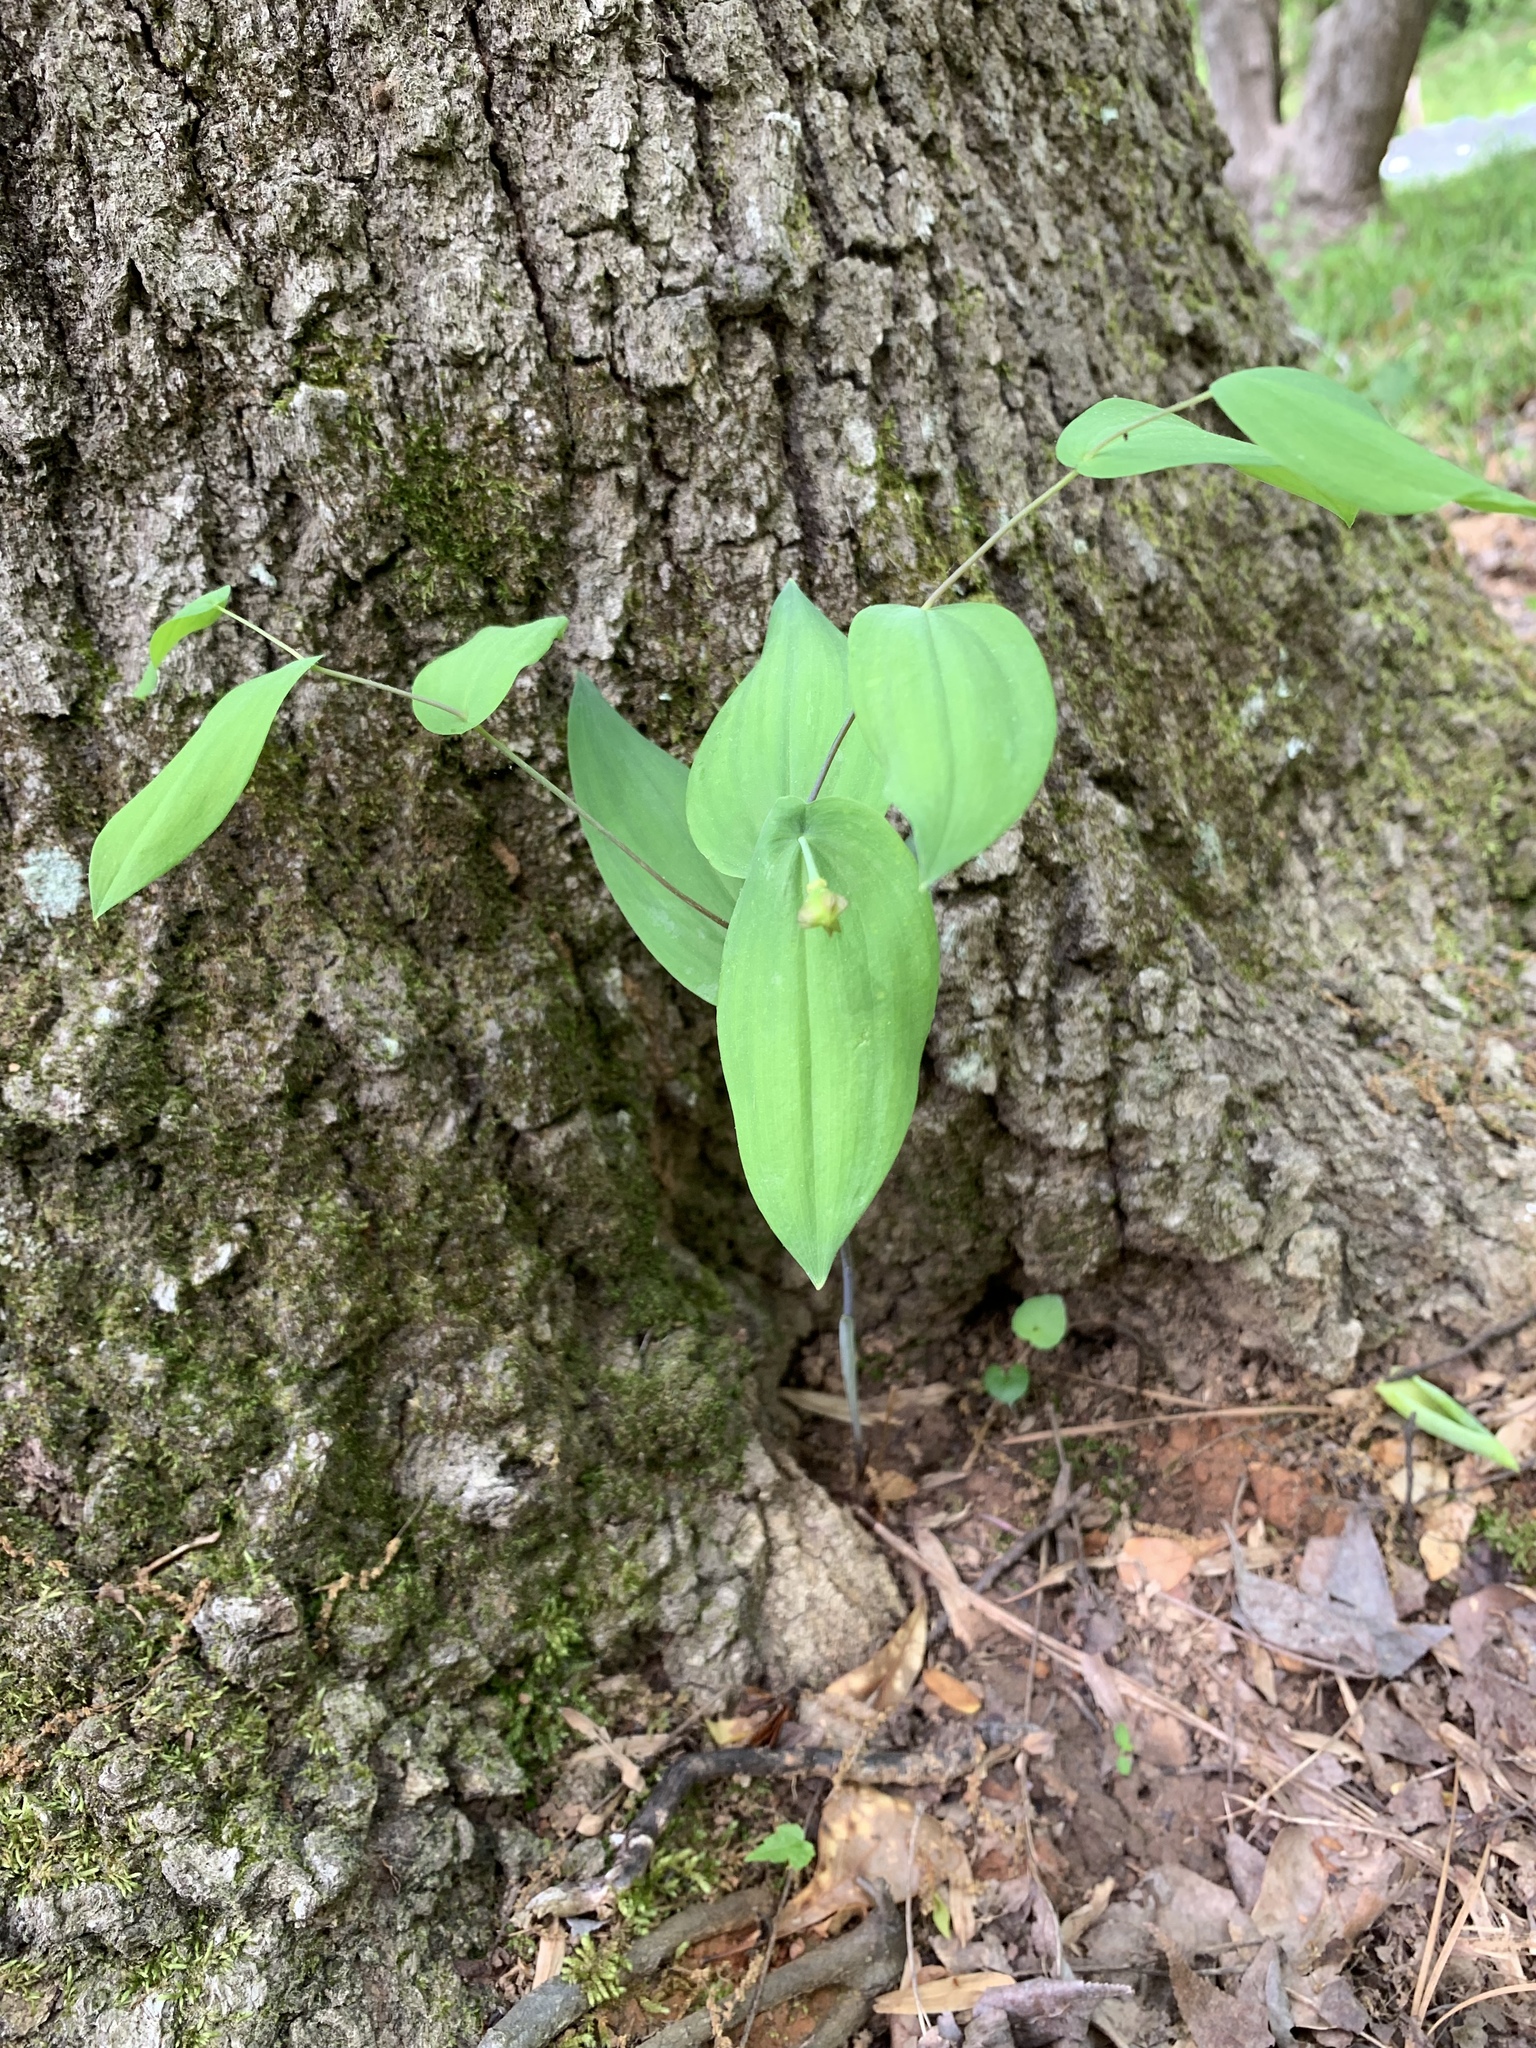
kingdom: Plantae
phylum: Tracheophyta
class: Liliopsida
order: Liliales
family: Colchicaceae
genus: Uvularia
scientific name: Uvularia perfoliata
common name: Perfoliate bellwort
